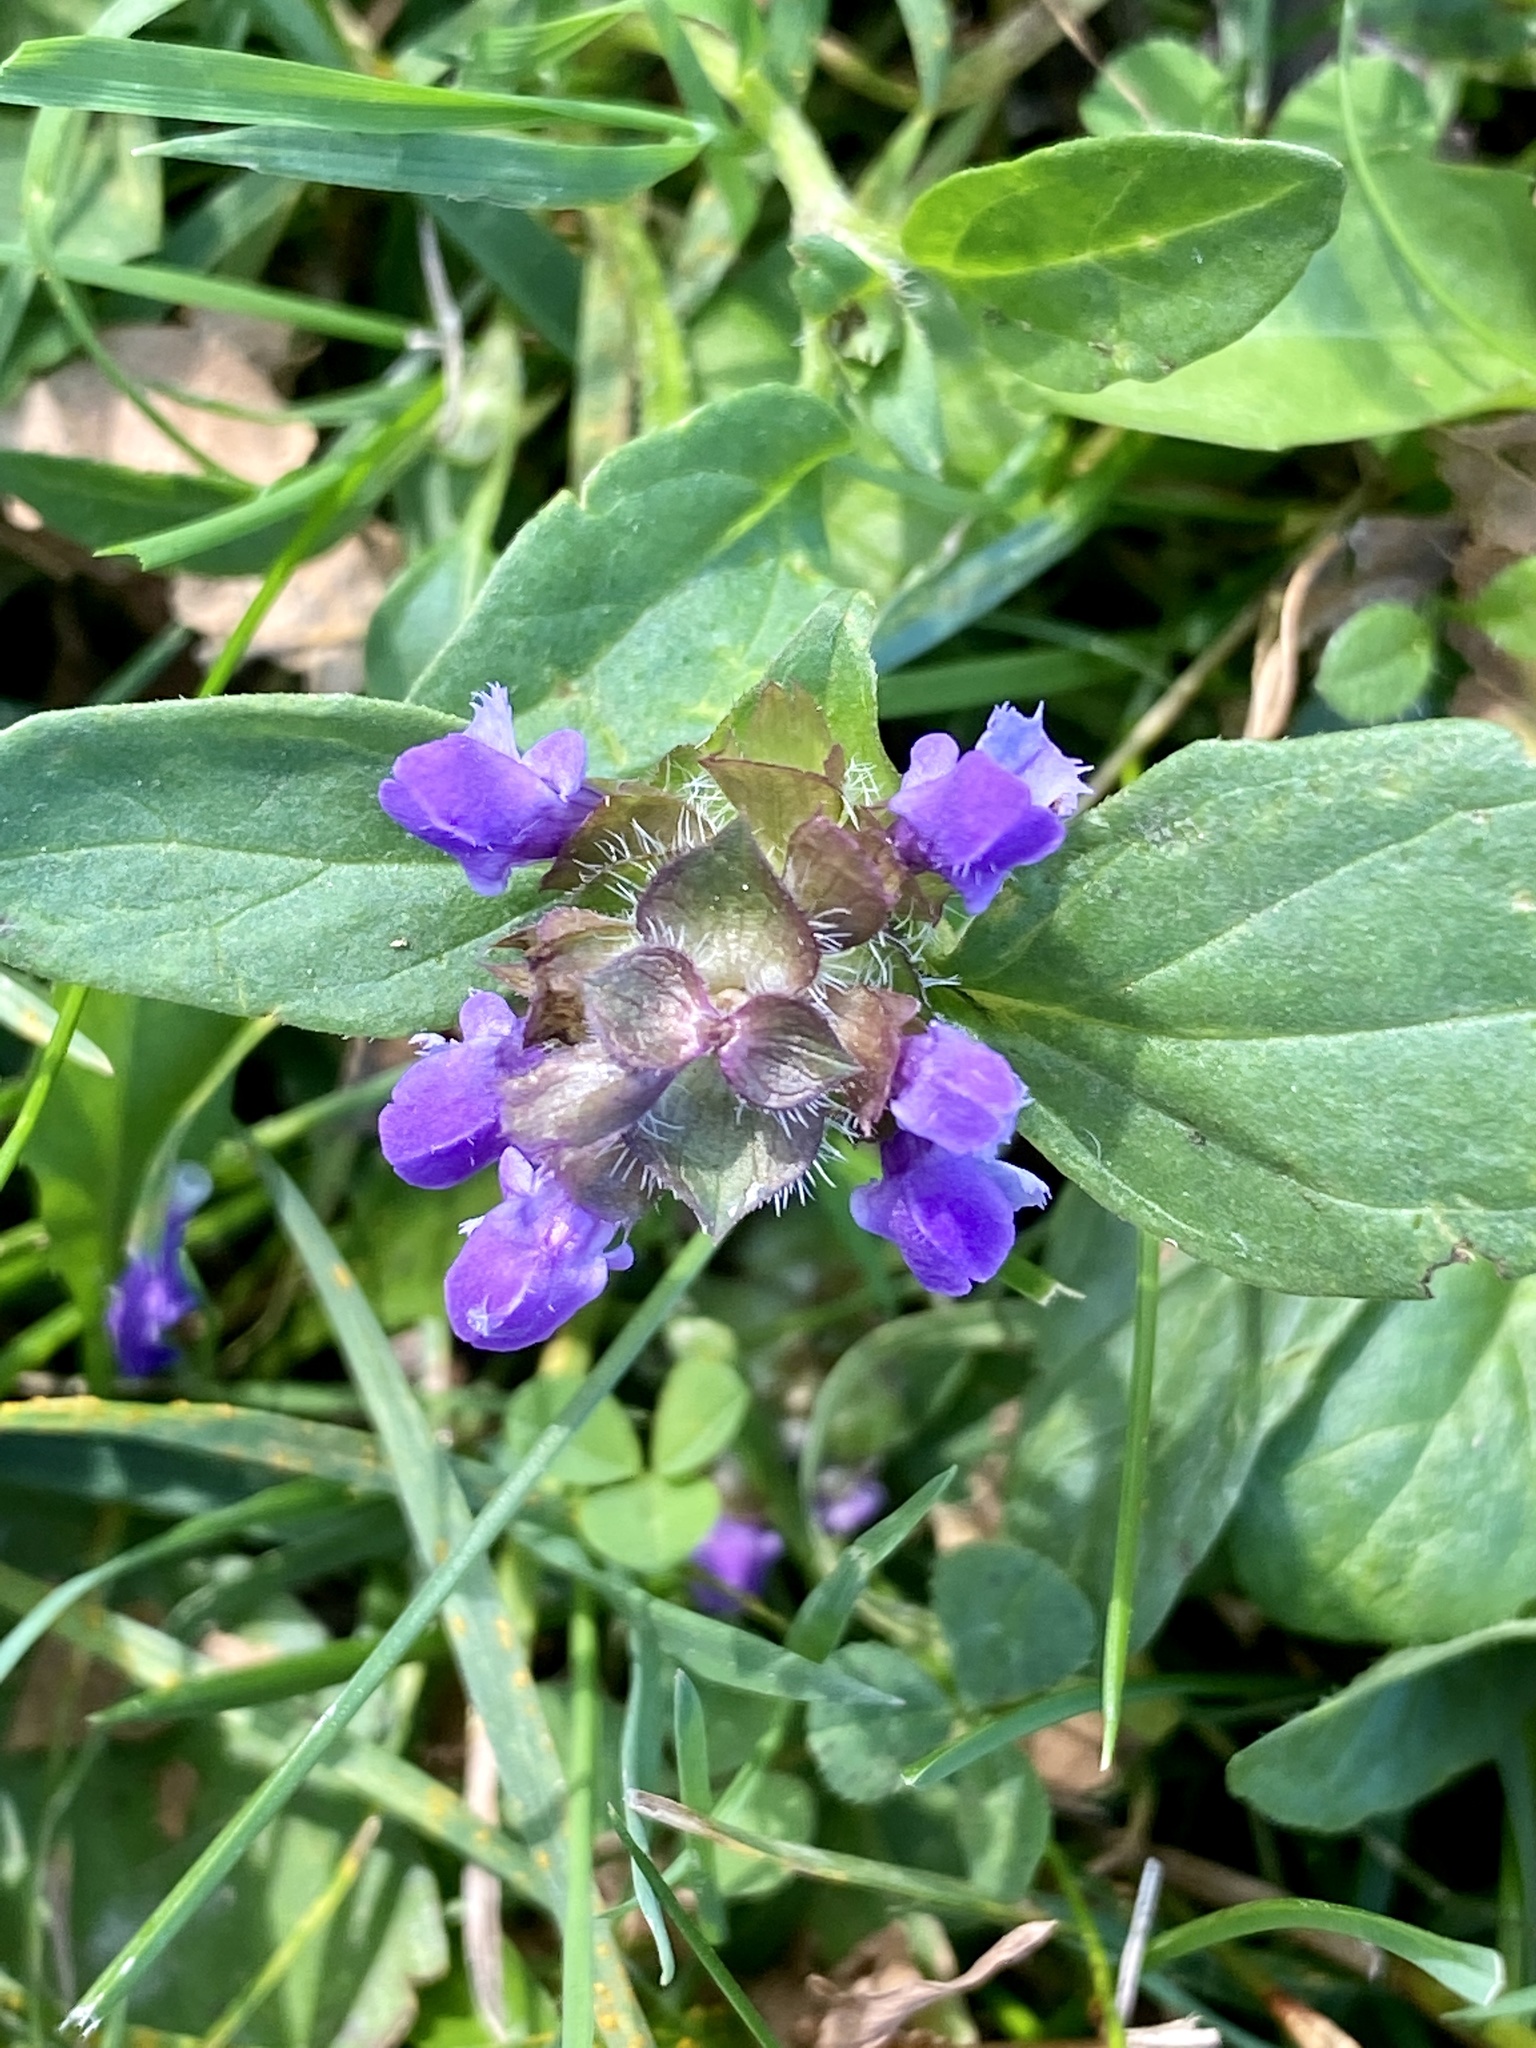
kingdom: Plantae
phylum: Tracheophyta
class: Magnoliopsida
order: Lamiales
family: Lamiaceae
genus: Prunella
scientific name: Prunella vulgaris
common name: Heal-all
